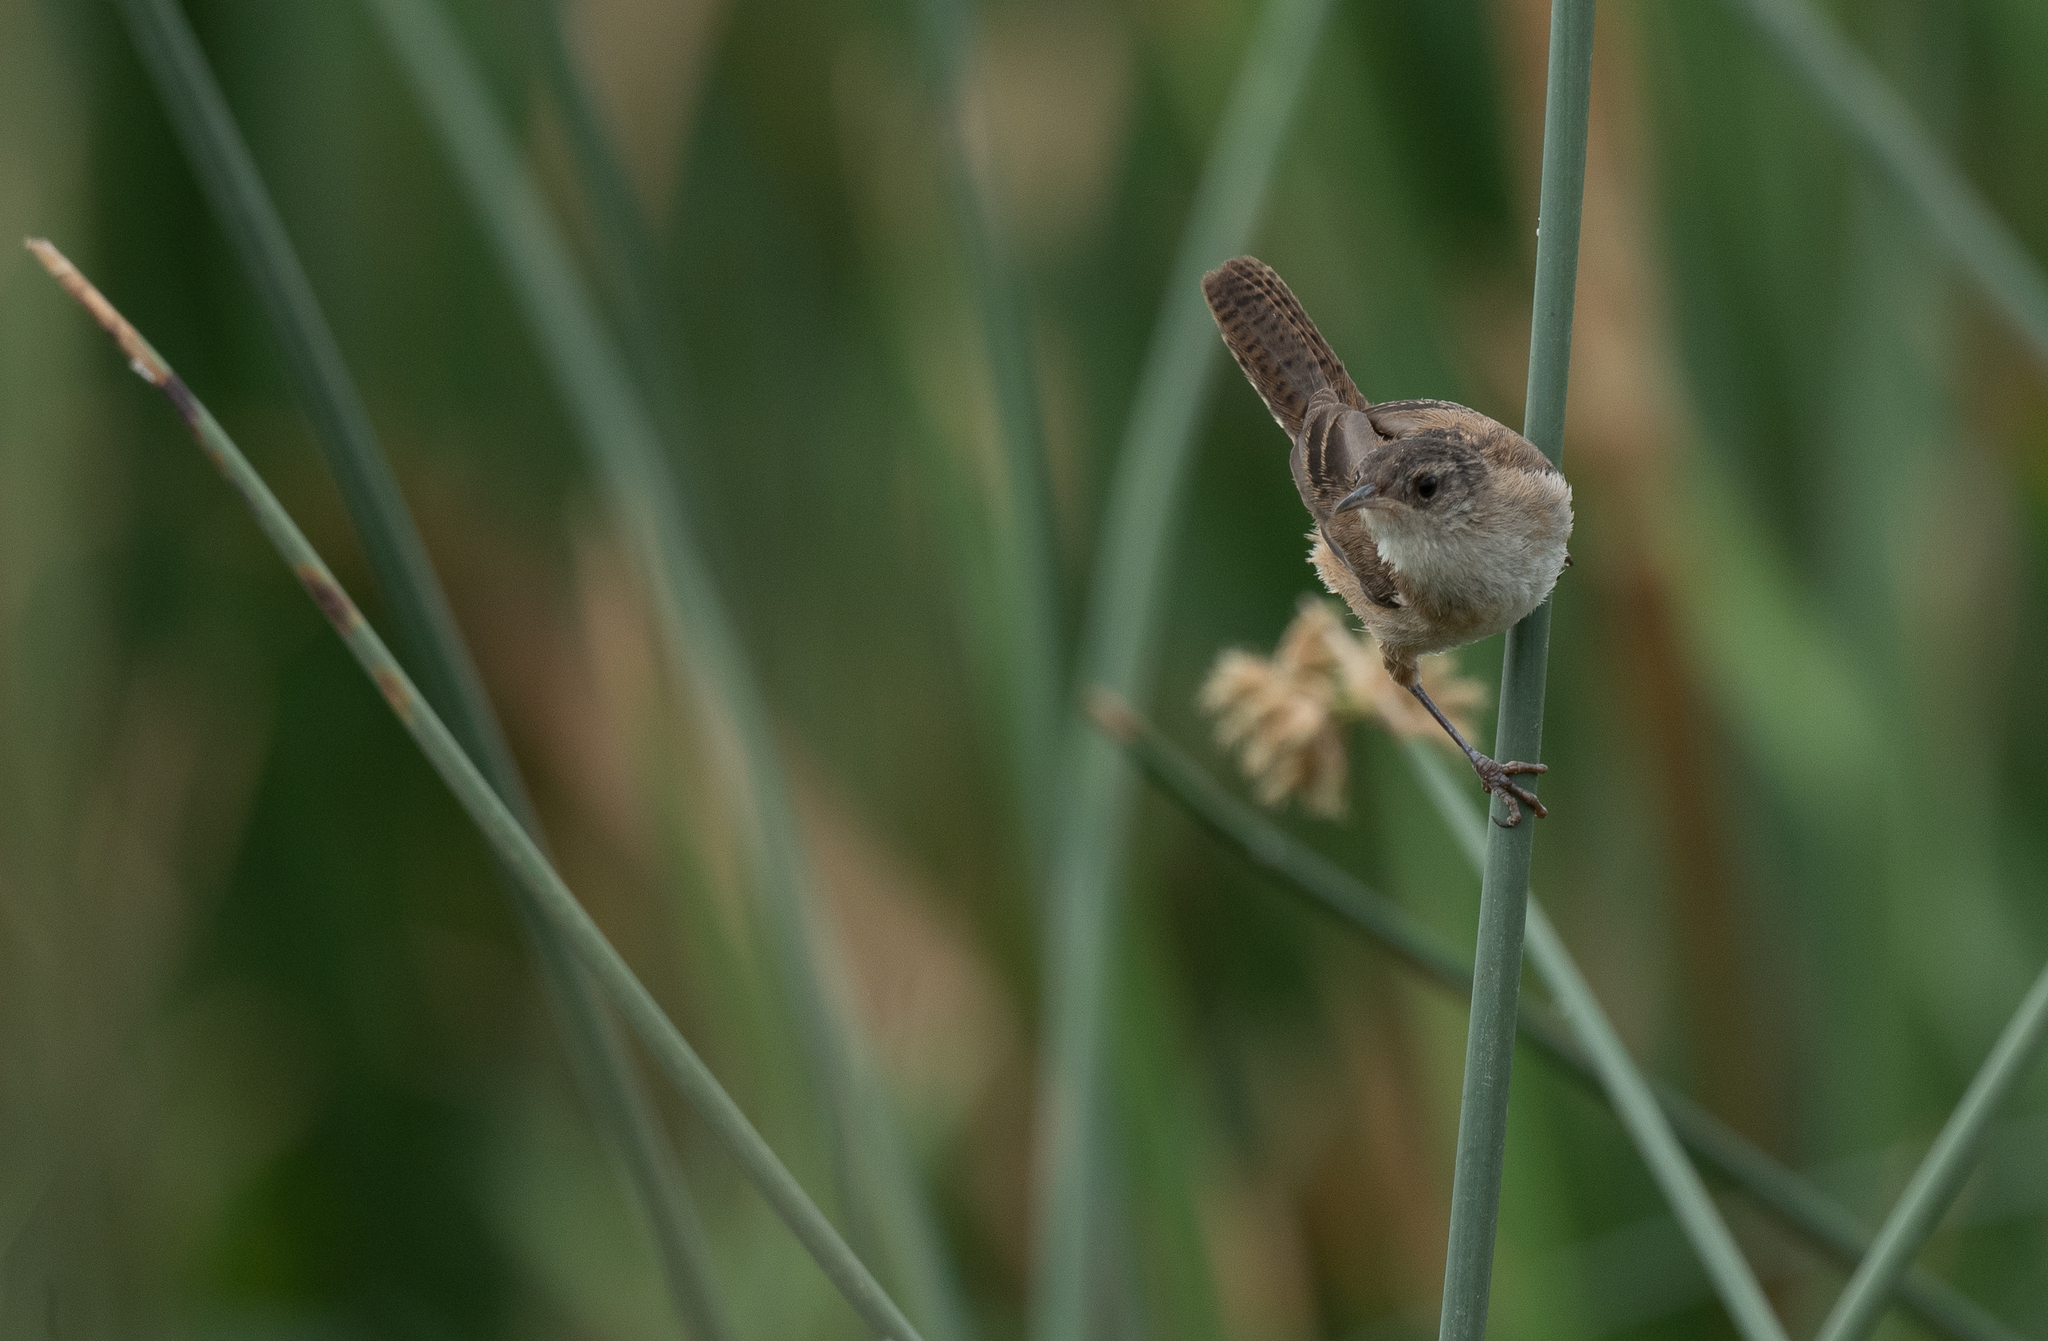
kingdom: Animalia
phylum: Chordata
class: Aves
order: Passeriformes
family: Troglodytidae
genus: Cistothorus
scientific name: Cistothorus palustris
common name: Marsh wren
